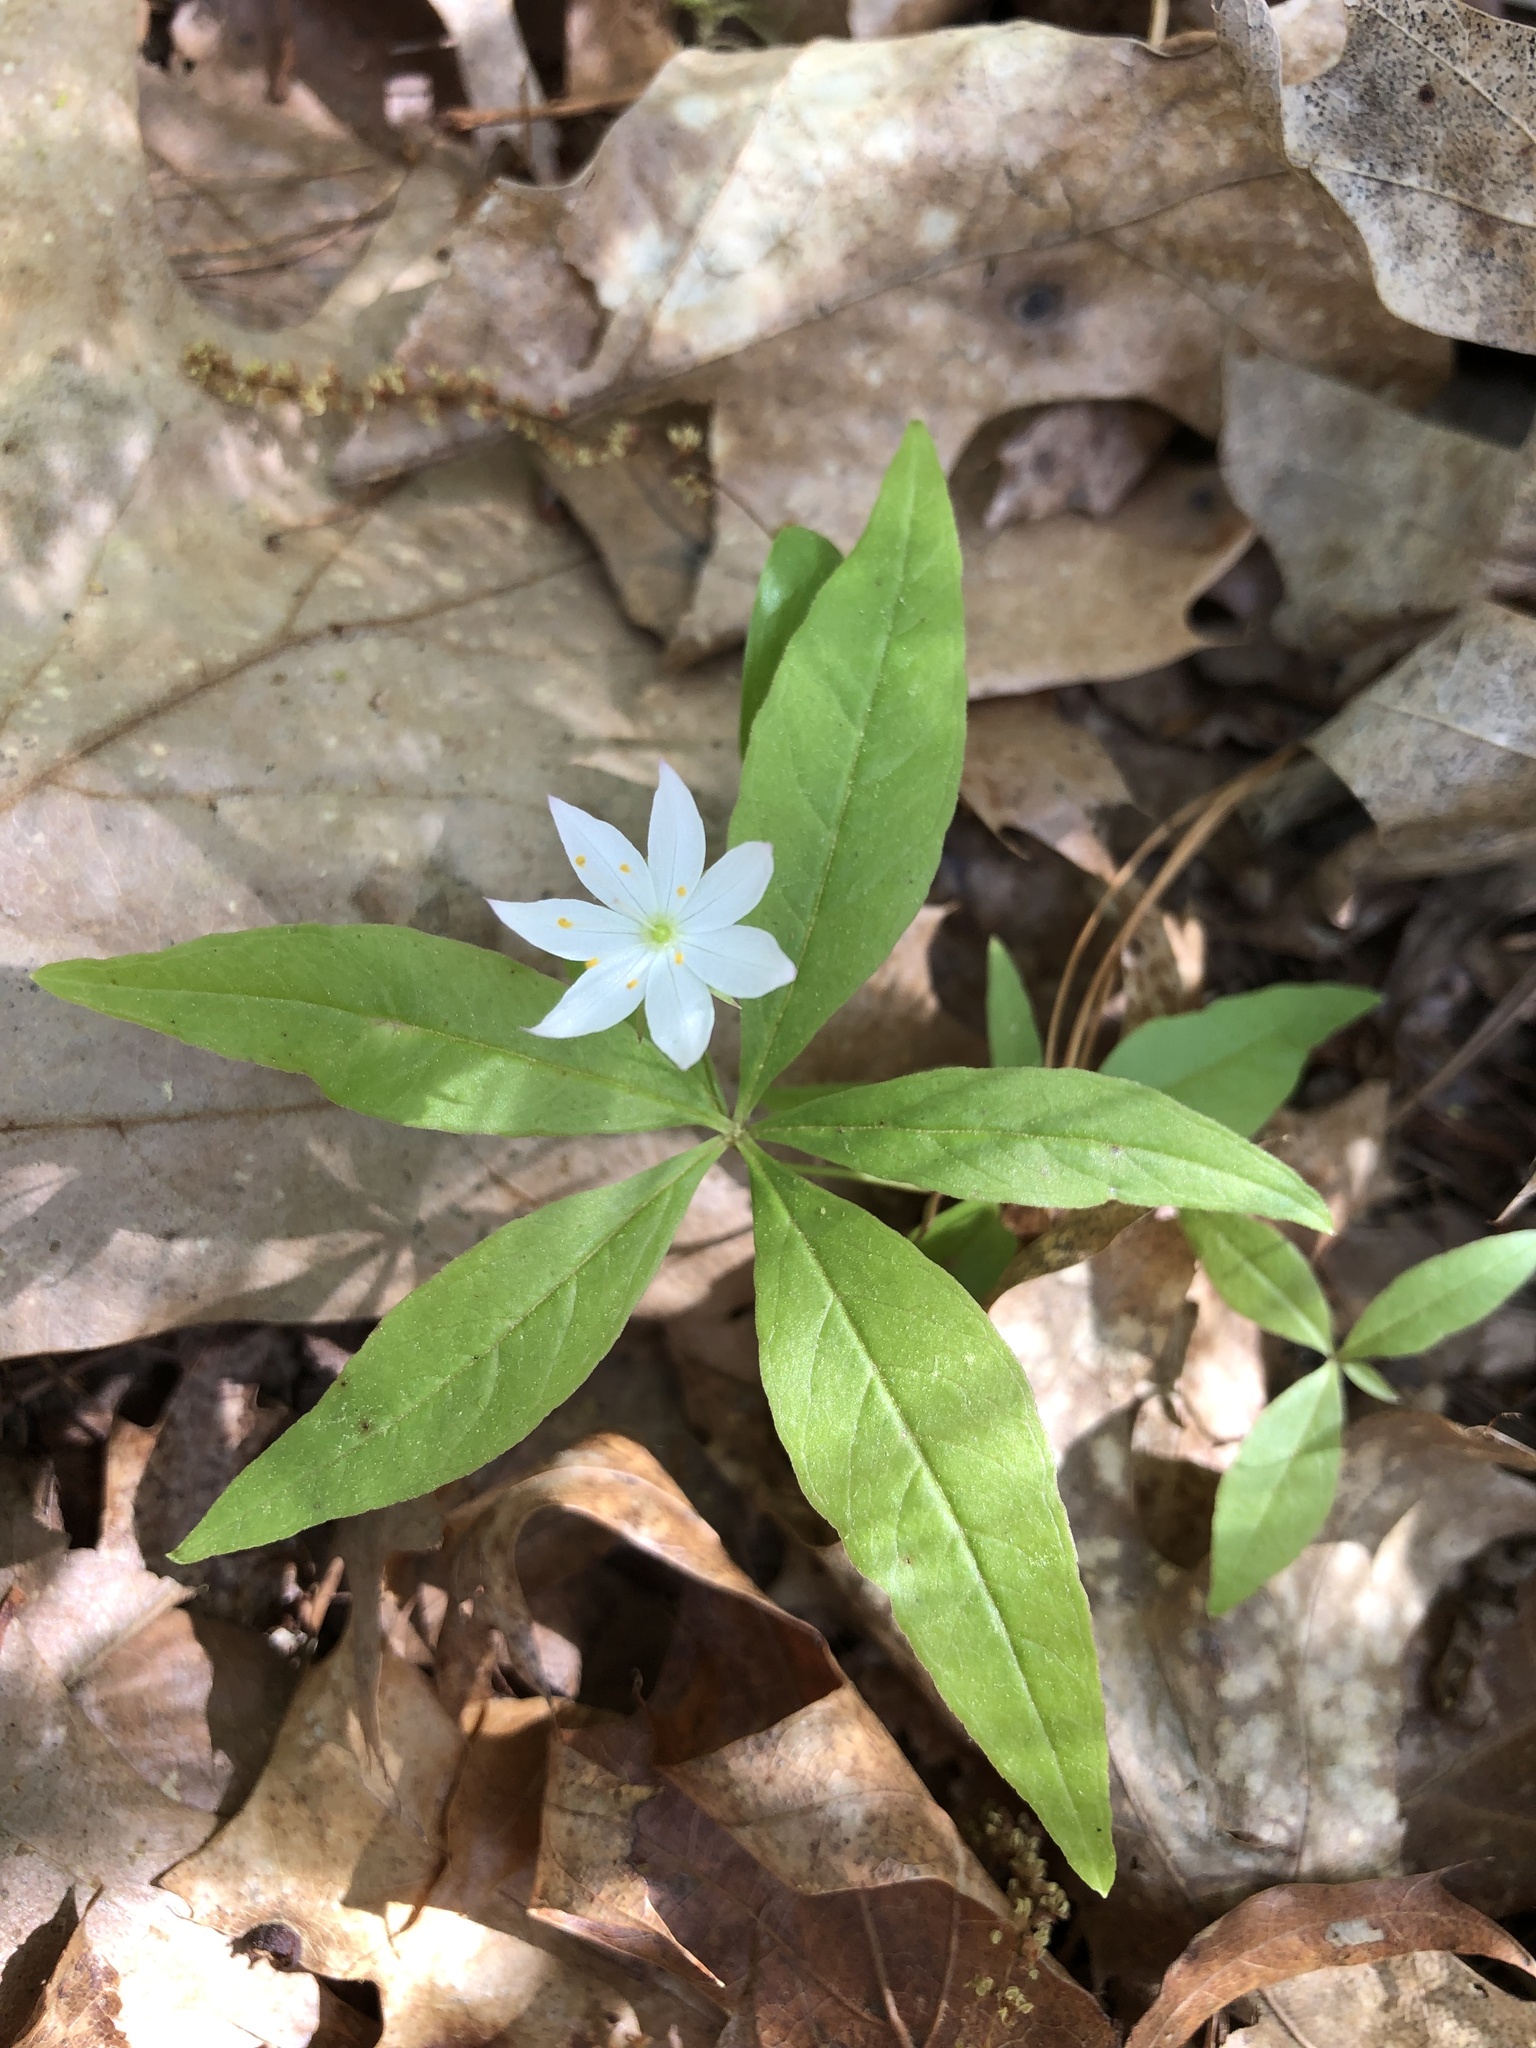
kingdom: Plantae
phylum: Tracheophyta
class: Magnoliopsida
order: Ericales
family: Primulaceae
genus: Lysimachia
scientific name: Lysimachia borealis
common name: American starflower
